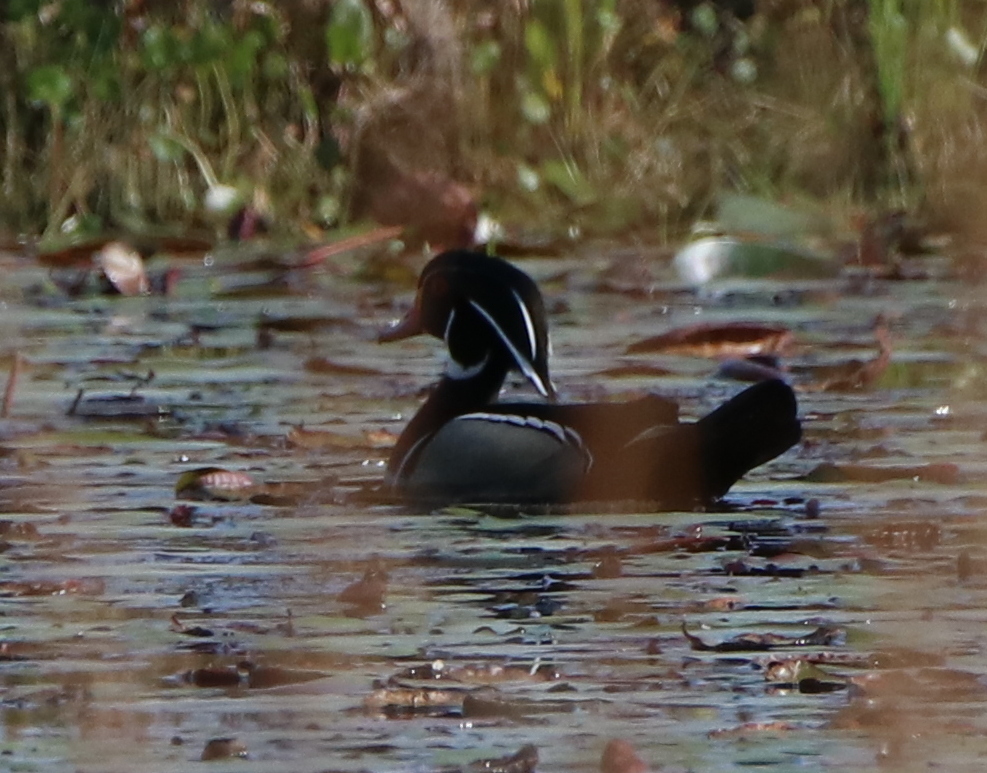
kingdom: Animalia
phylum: Chordata
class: Aves
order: Anseriformes
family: Anatidae
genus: Aix
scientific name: Aix sponsa
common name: Wood duck
